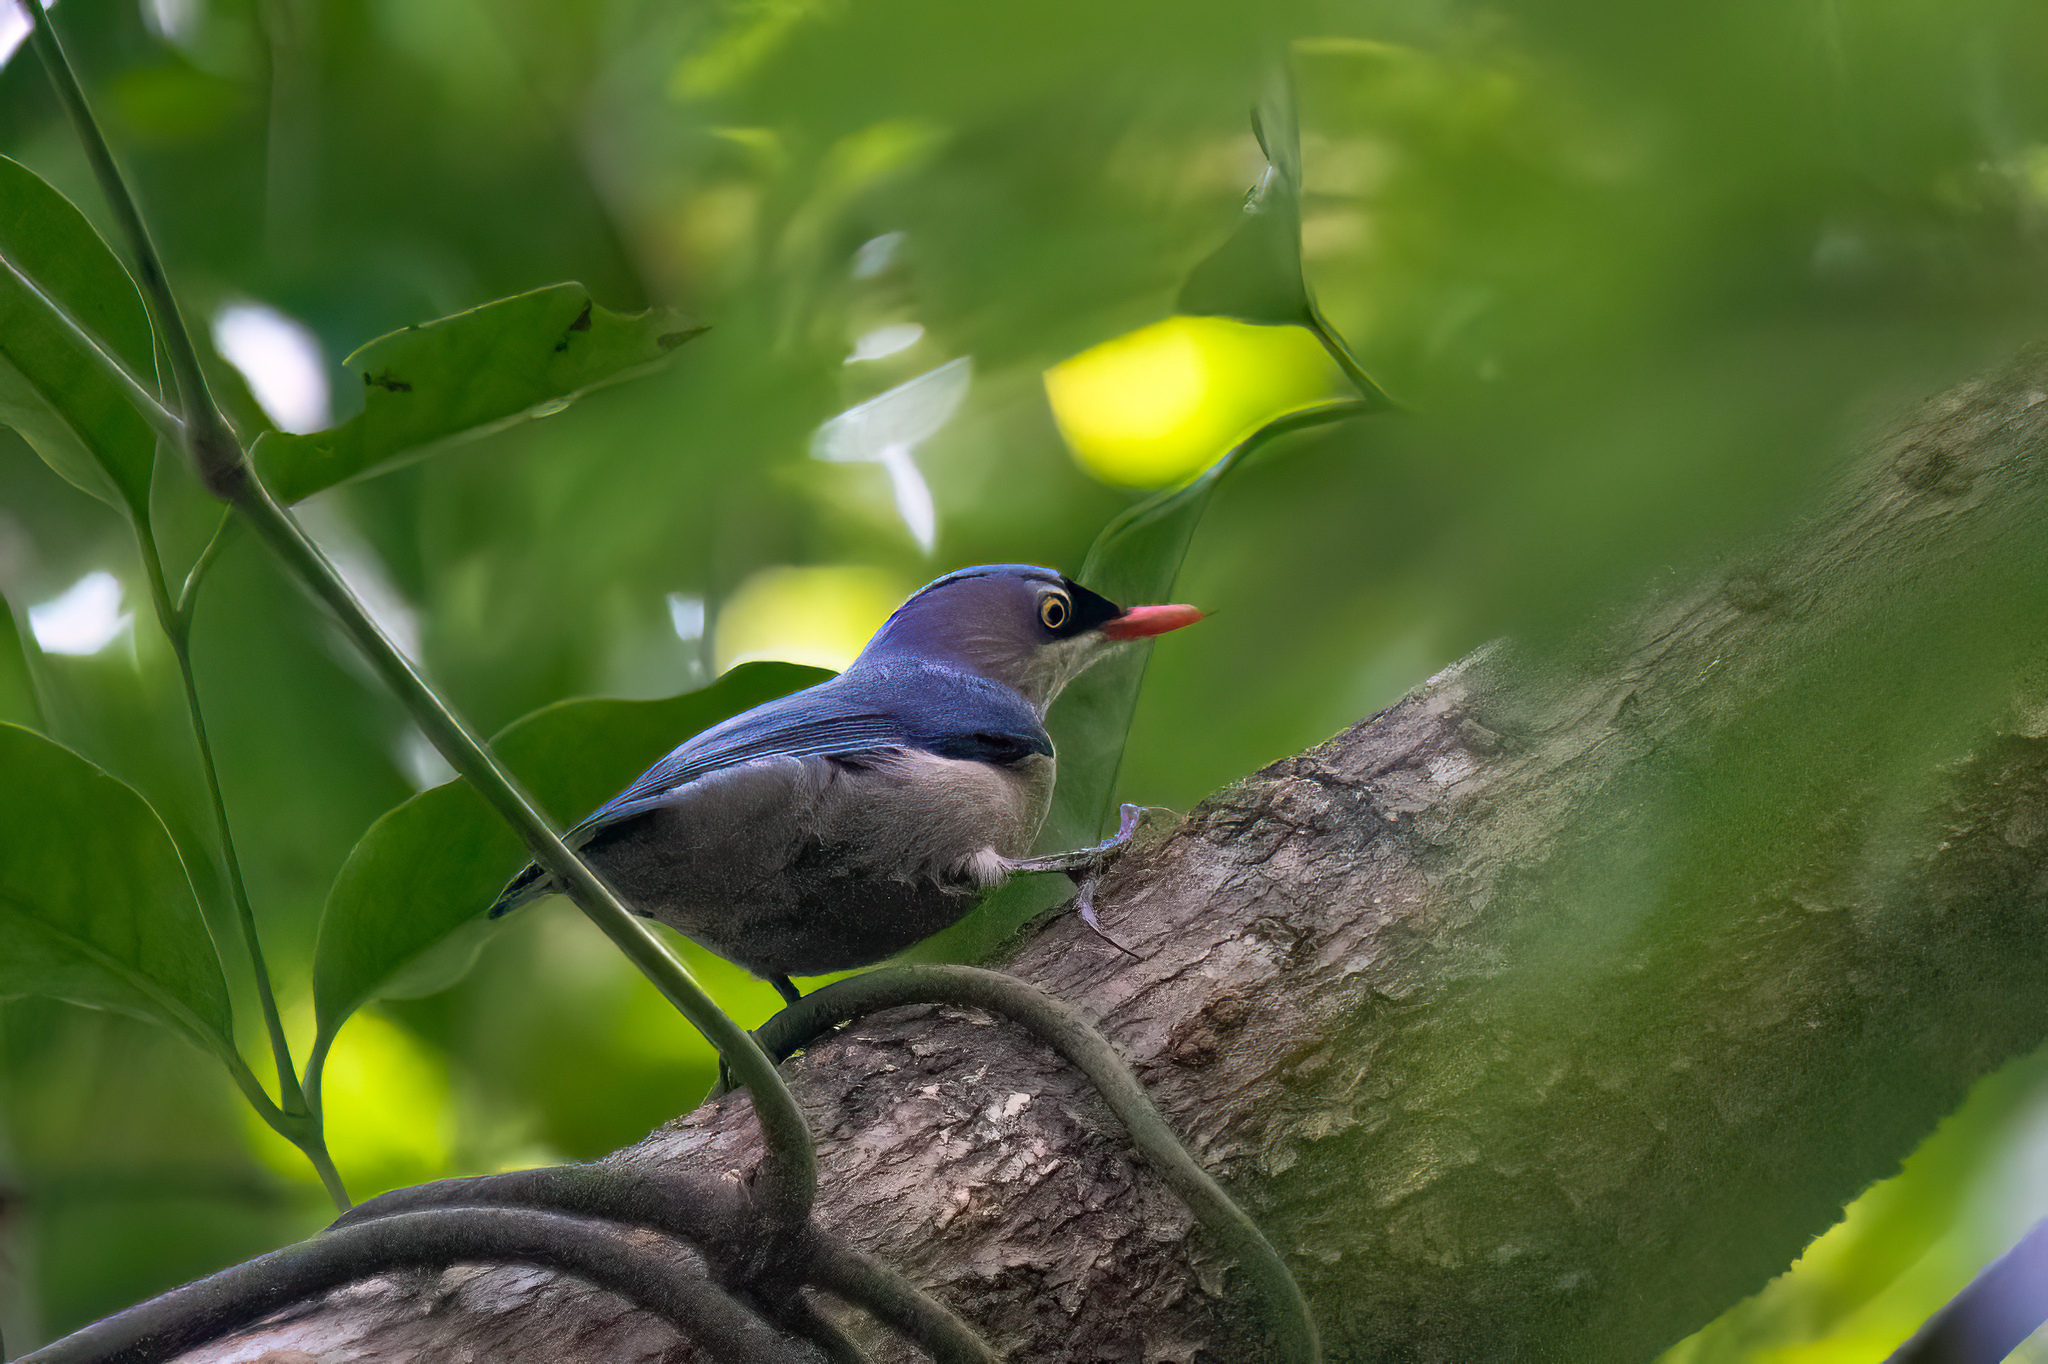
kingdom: Animalia
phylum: Chordata
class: Aves
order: Passeriformes
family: Sittidae
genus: Sitta
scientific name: Sitta frontalis
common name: Velvet-fronted nuthatch
